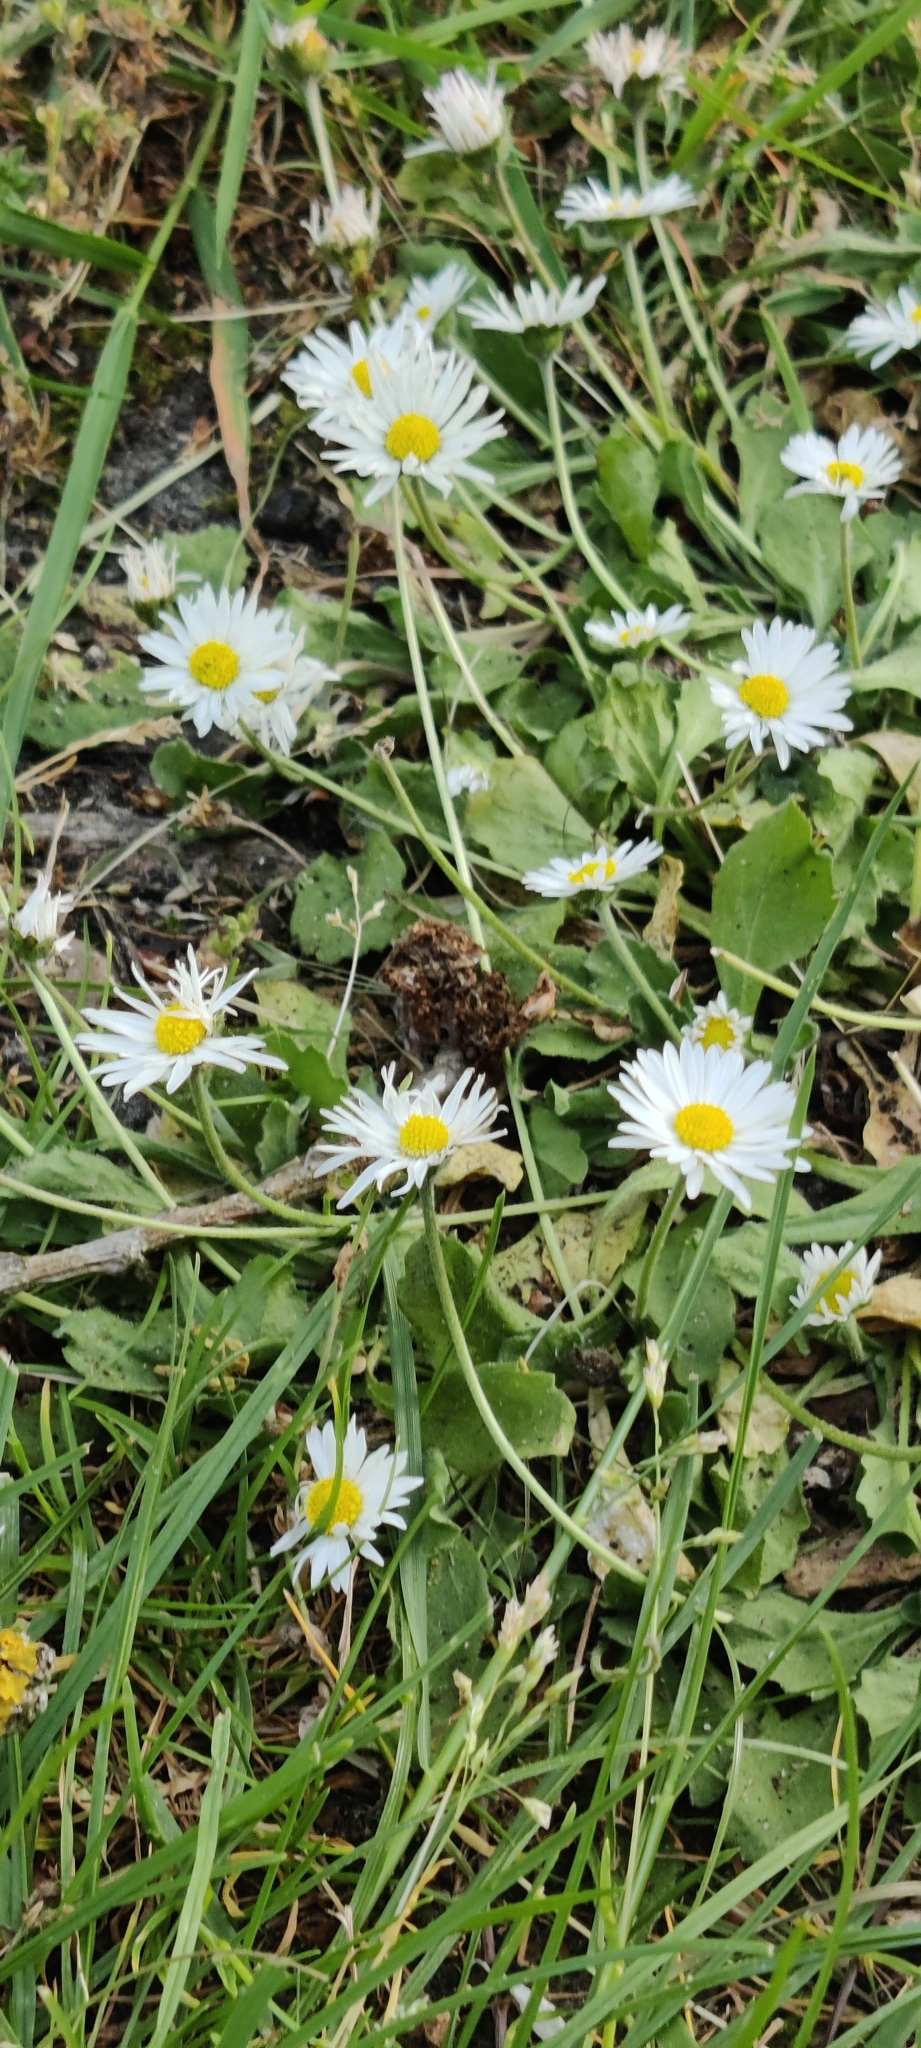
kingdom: Plantae
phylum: Tracheophyta
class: Magnoliopsida
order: Asterales
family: Asteraceae
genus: Bellis
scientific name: Bellis perennis
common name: Lawndaisy
